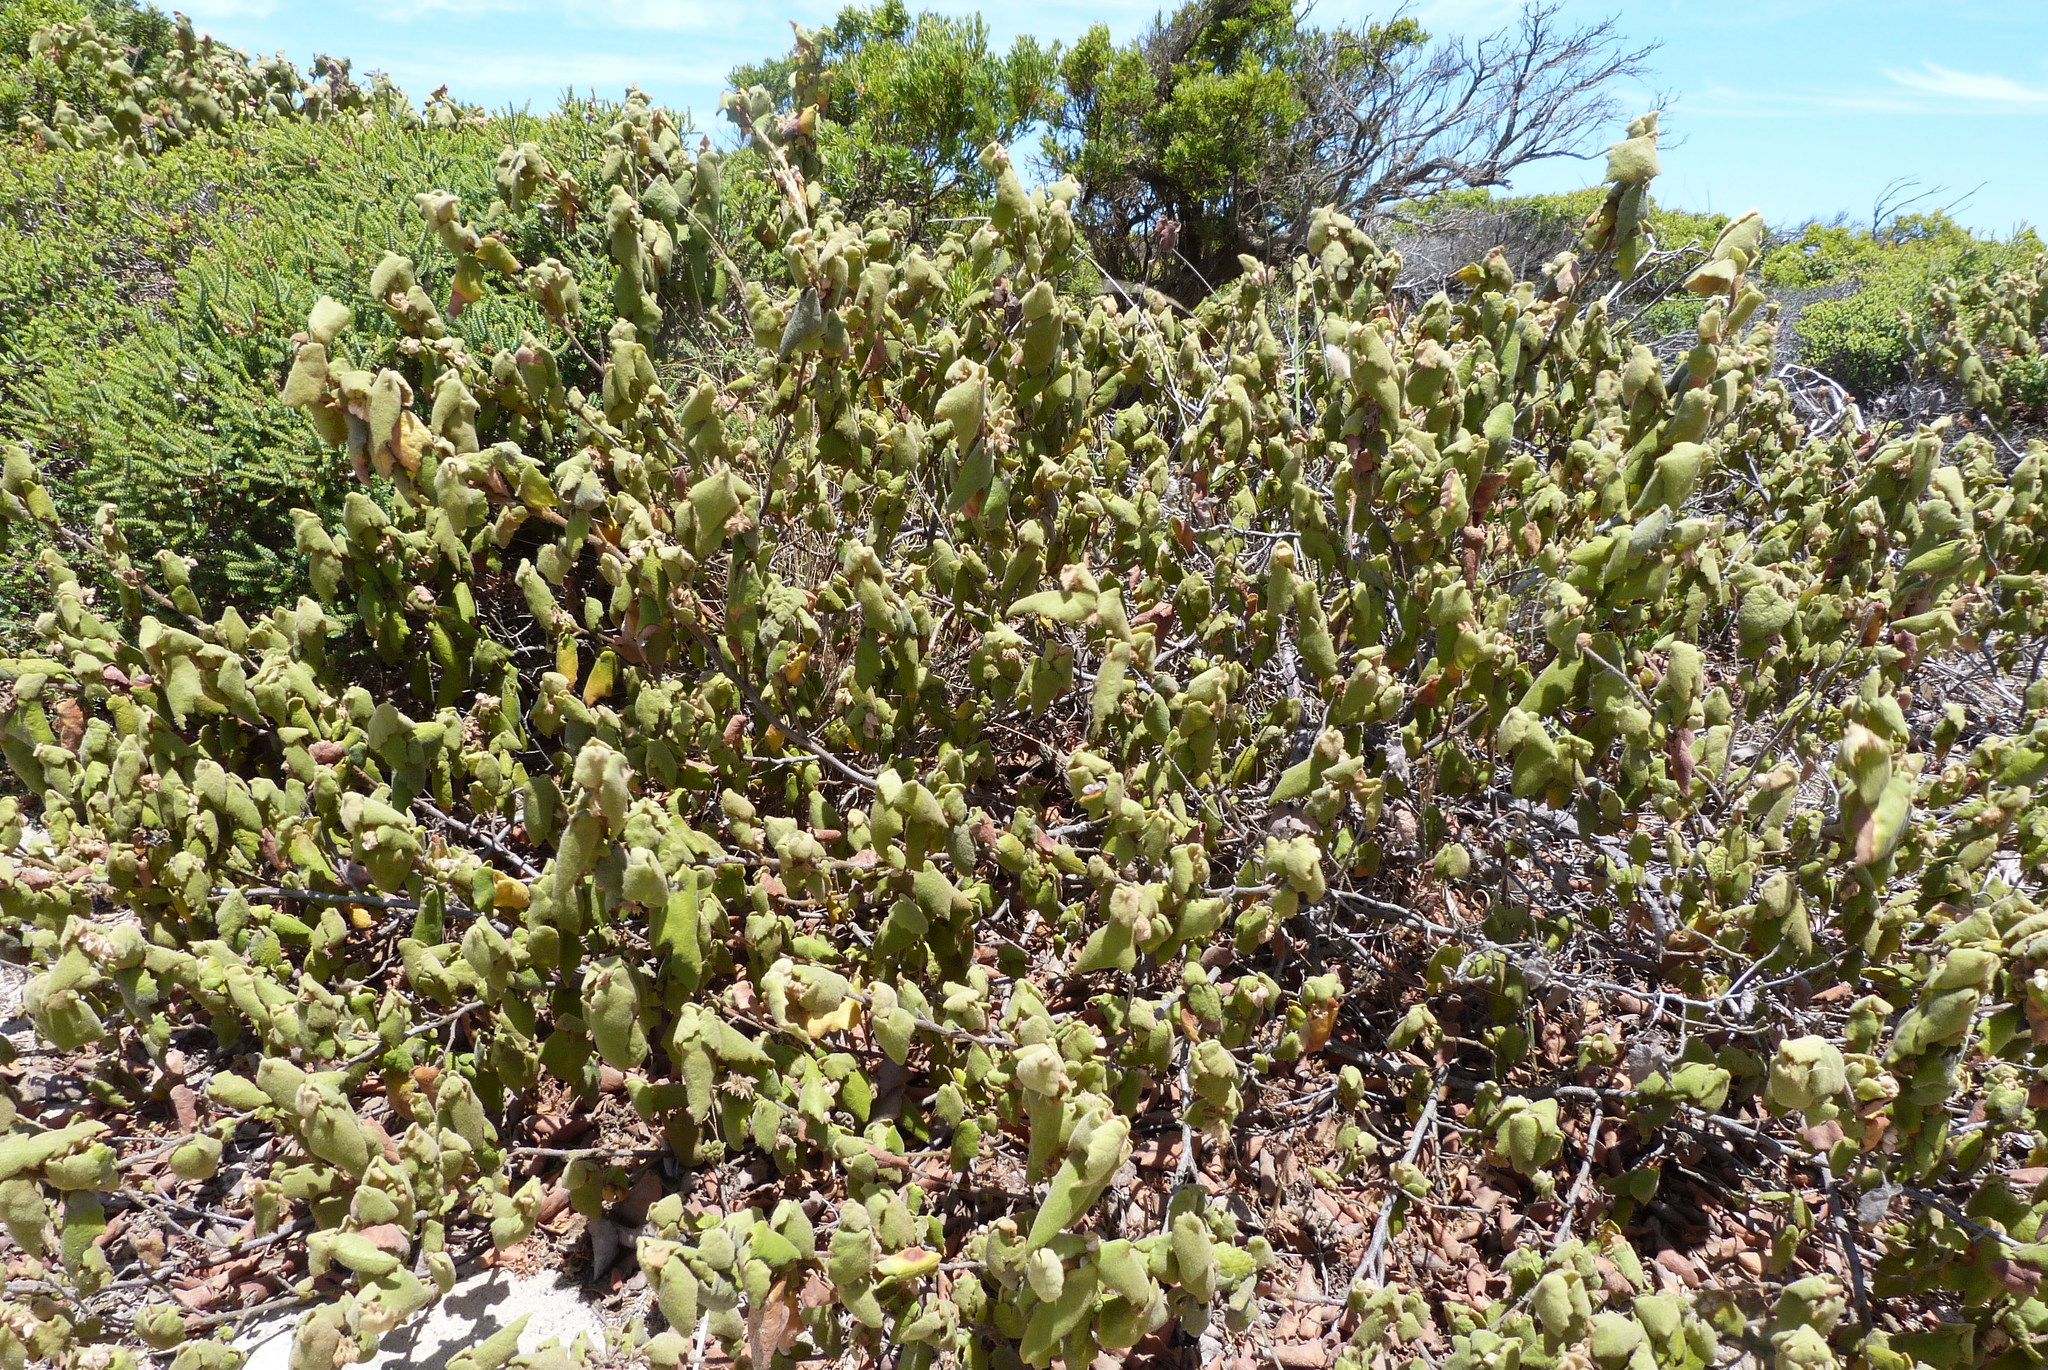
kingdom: Plantae
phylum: Tracheophyta
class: Magnoliopsida
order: Malvales
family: Malvaceae
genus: Lasiopetalum
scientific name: Lasiopetalum schulzenii
